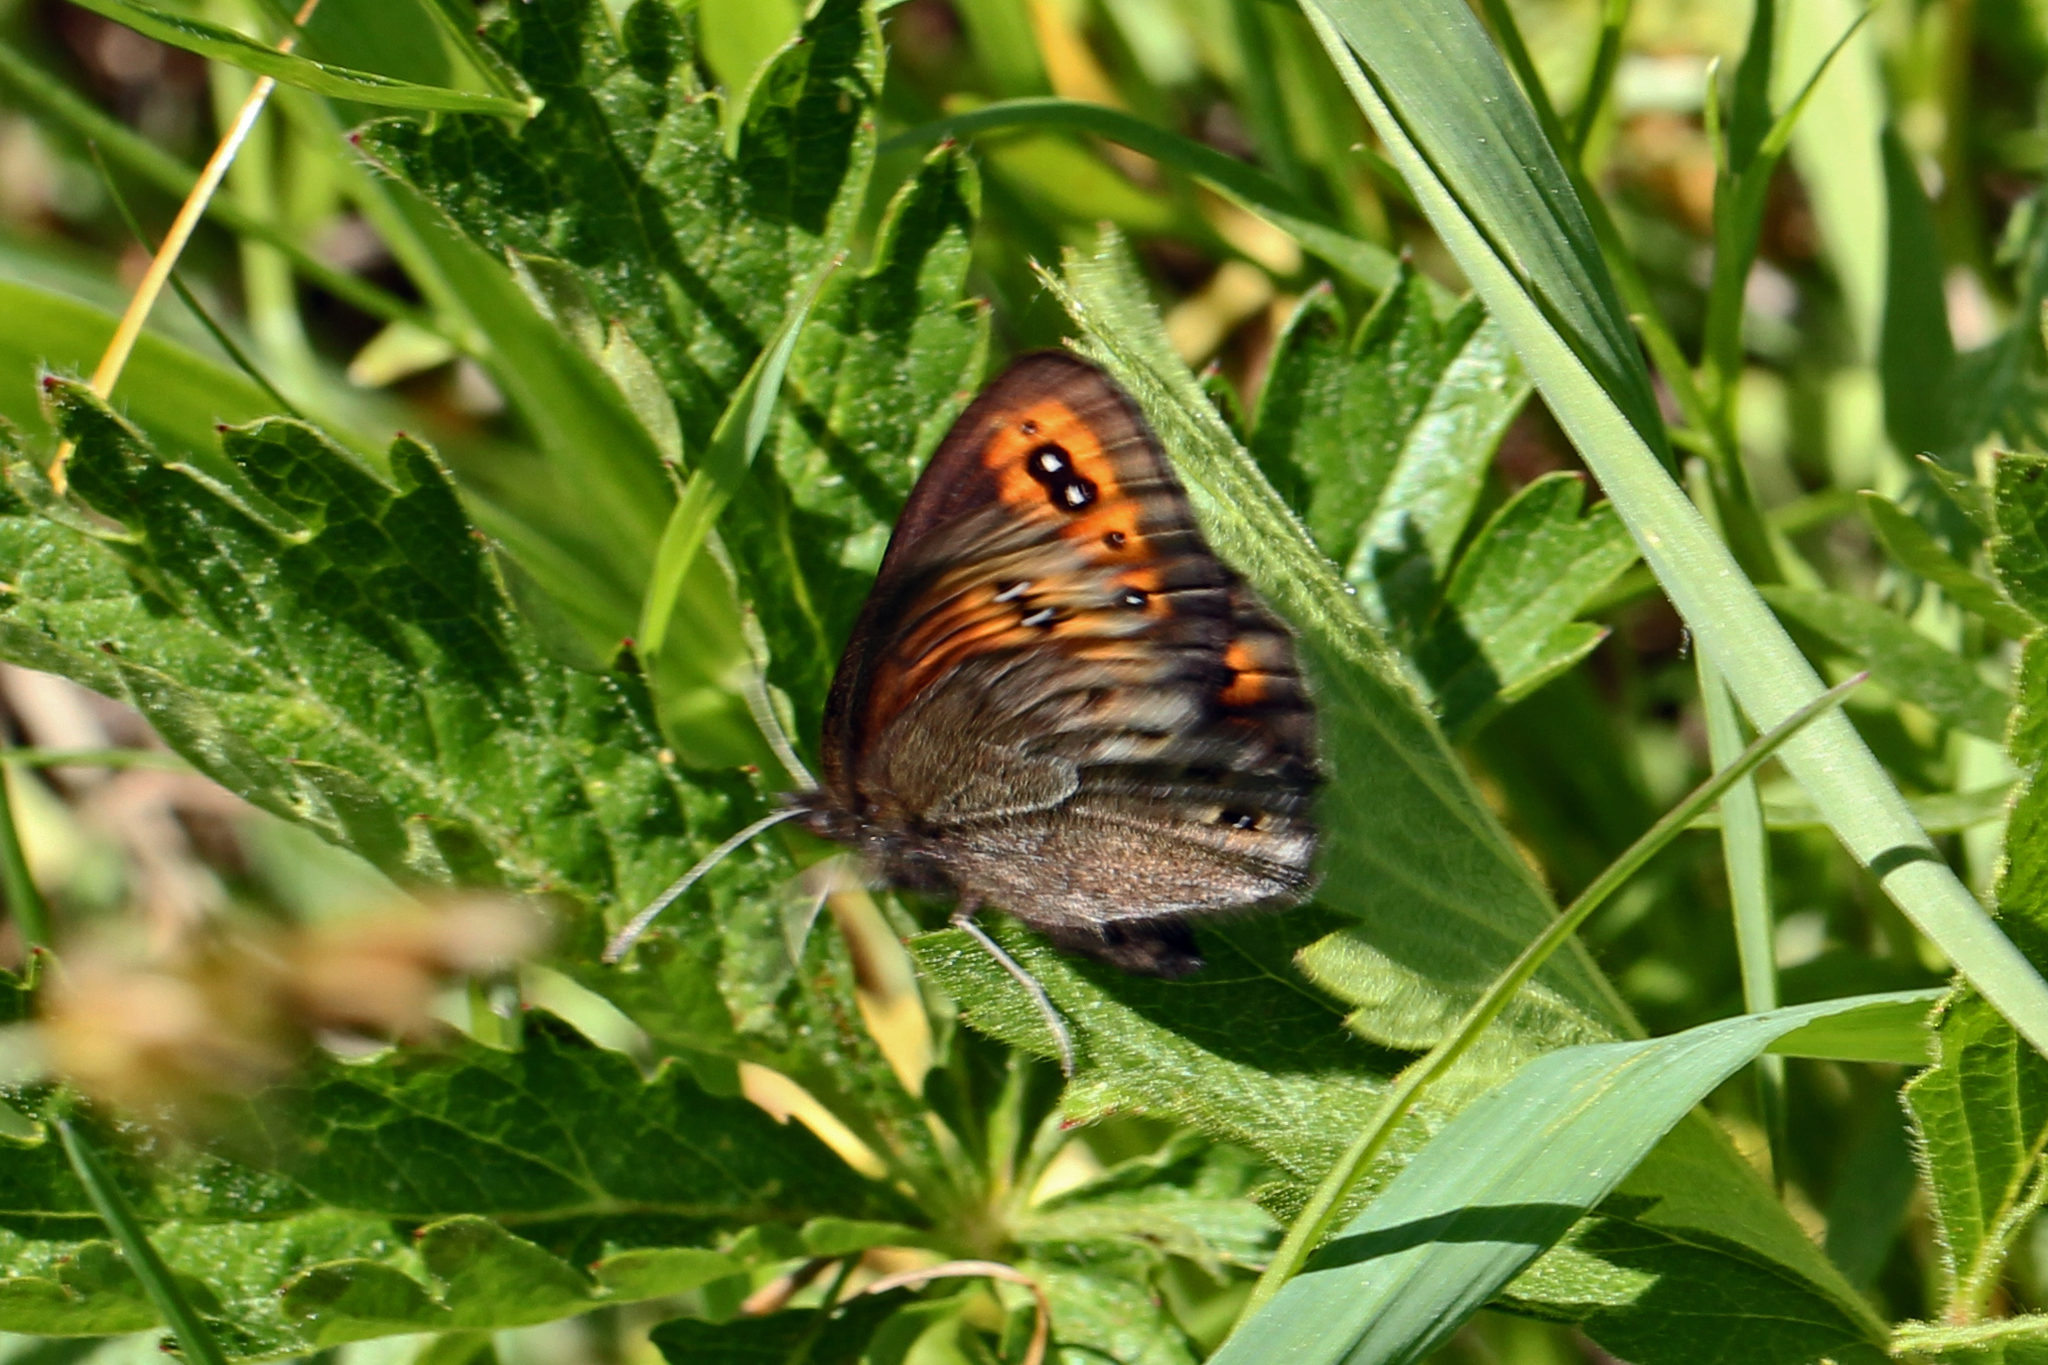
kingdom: Animalia
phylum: Arthropoda
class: Insecta
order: Lepidoptera
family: Nymphalidae
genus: Erebia
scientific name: Erebia epipsodea
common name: Common alpine
